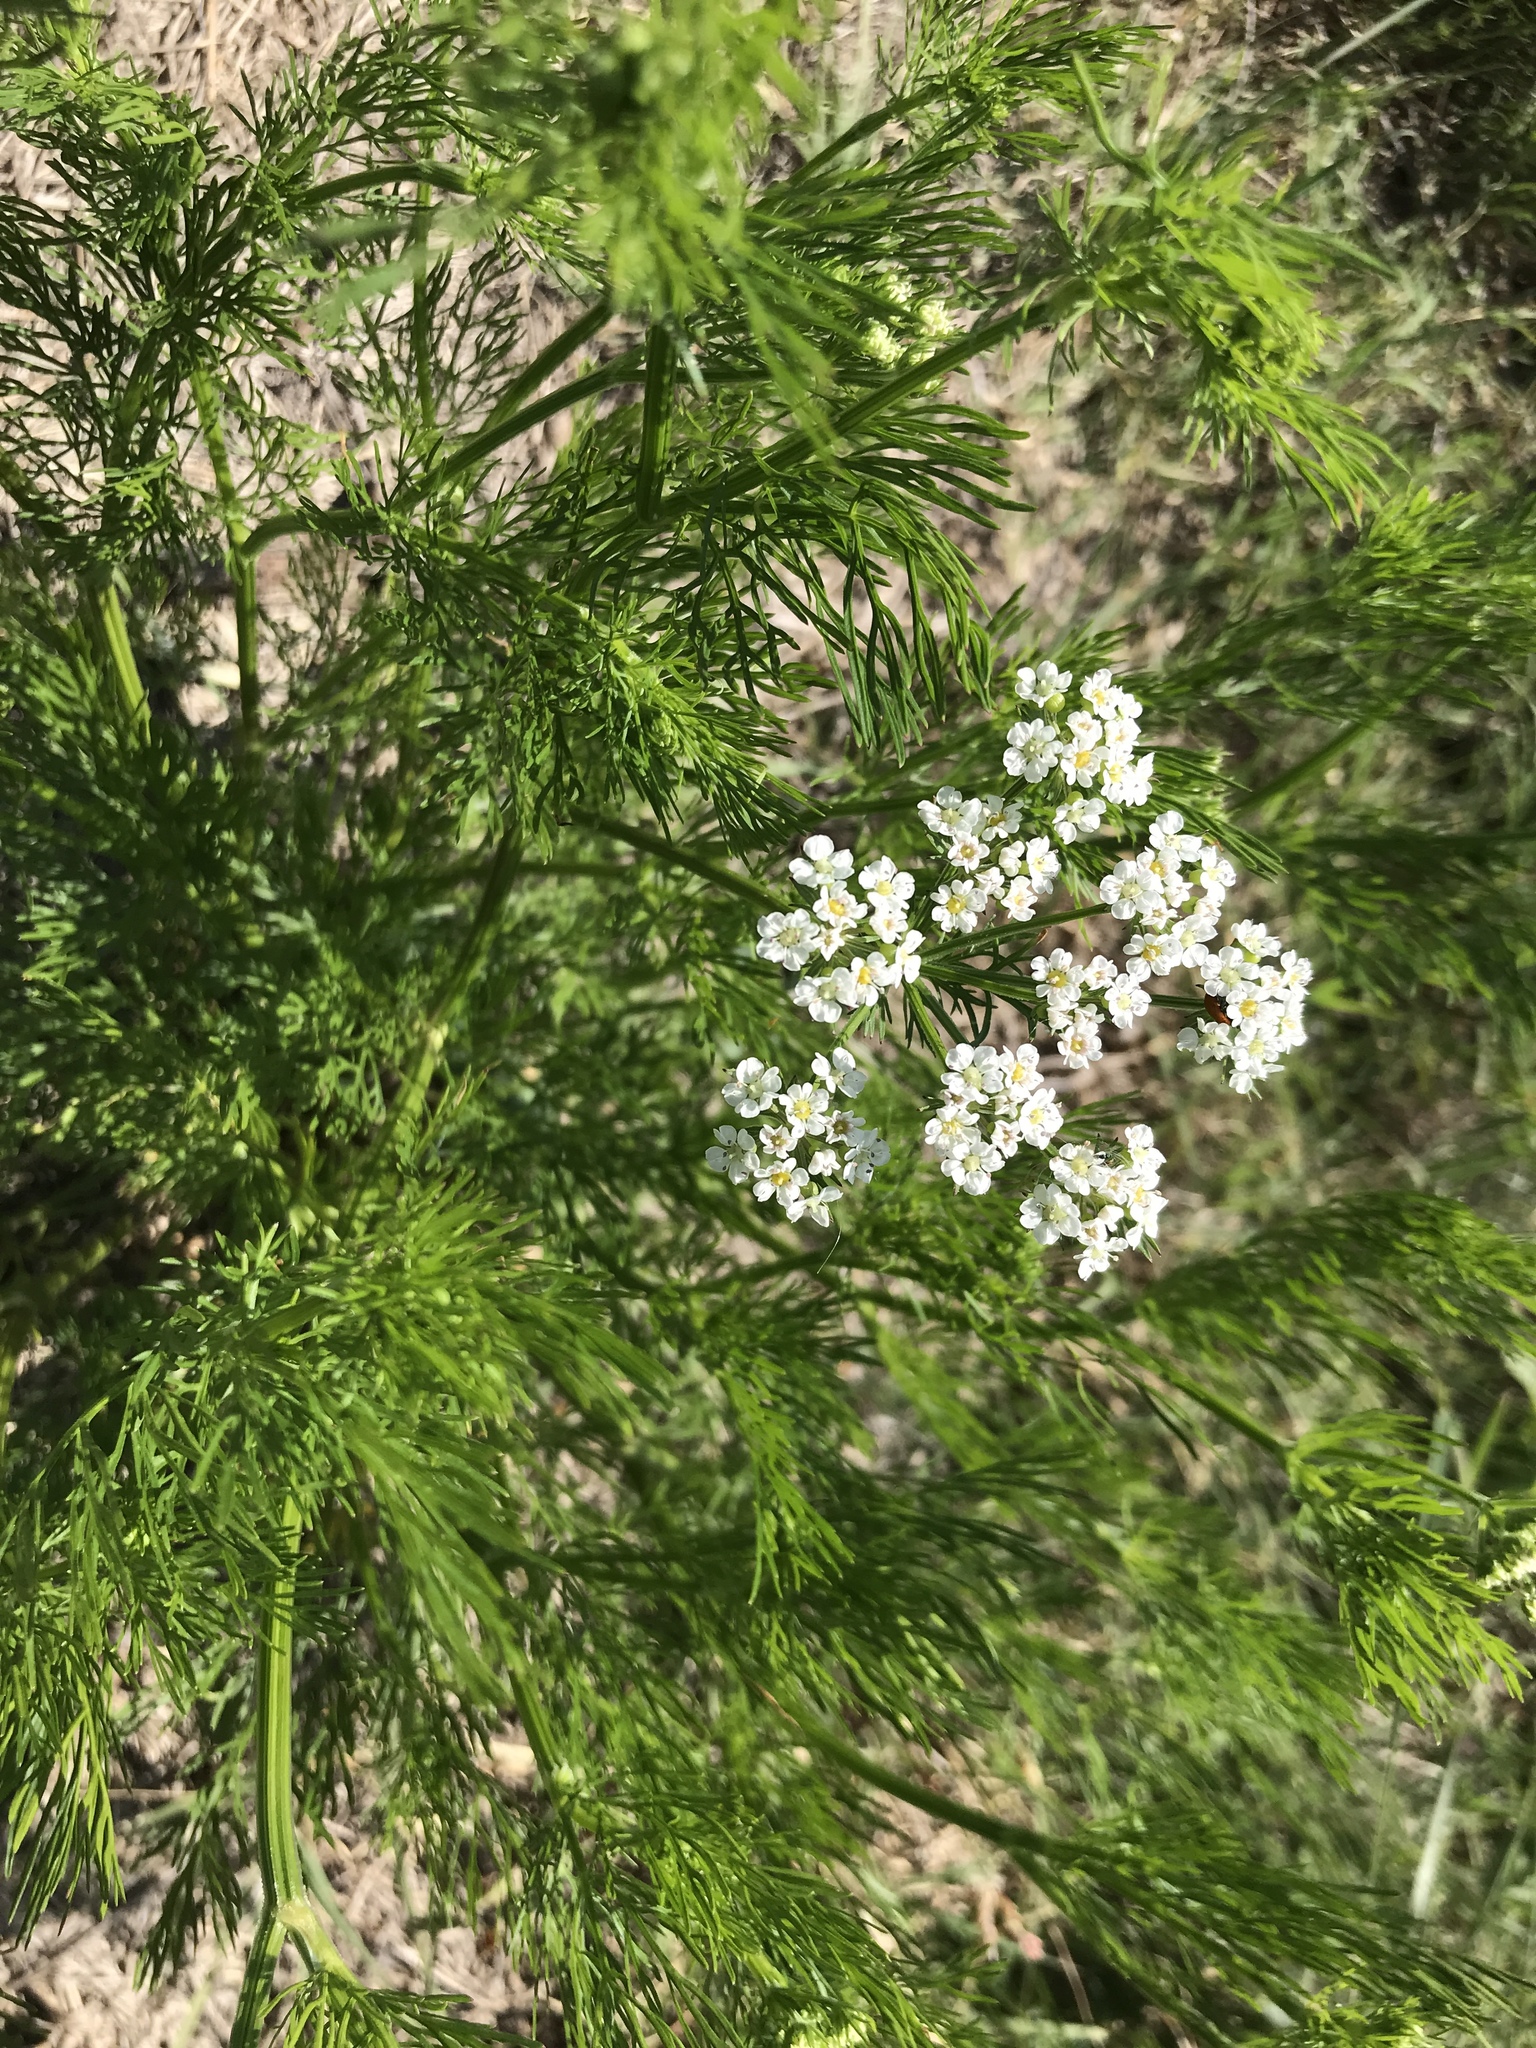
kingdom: Plantae
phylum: Tracheophyta
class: Magnoliopsida
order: Apiales
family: Apiaceae
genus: Atrema
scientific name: Atrema americanum
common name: Prairie-bishop
